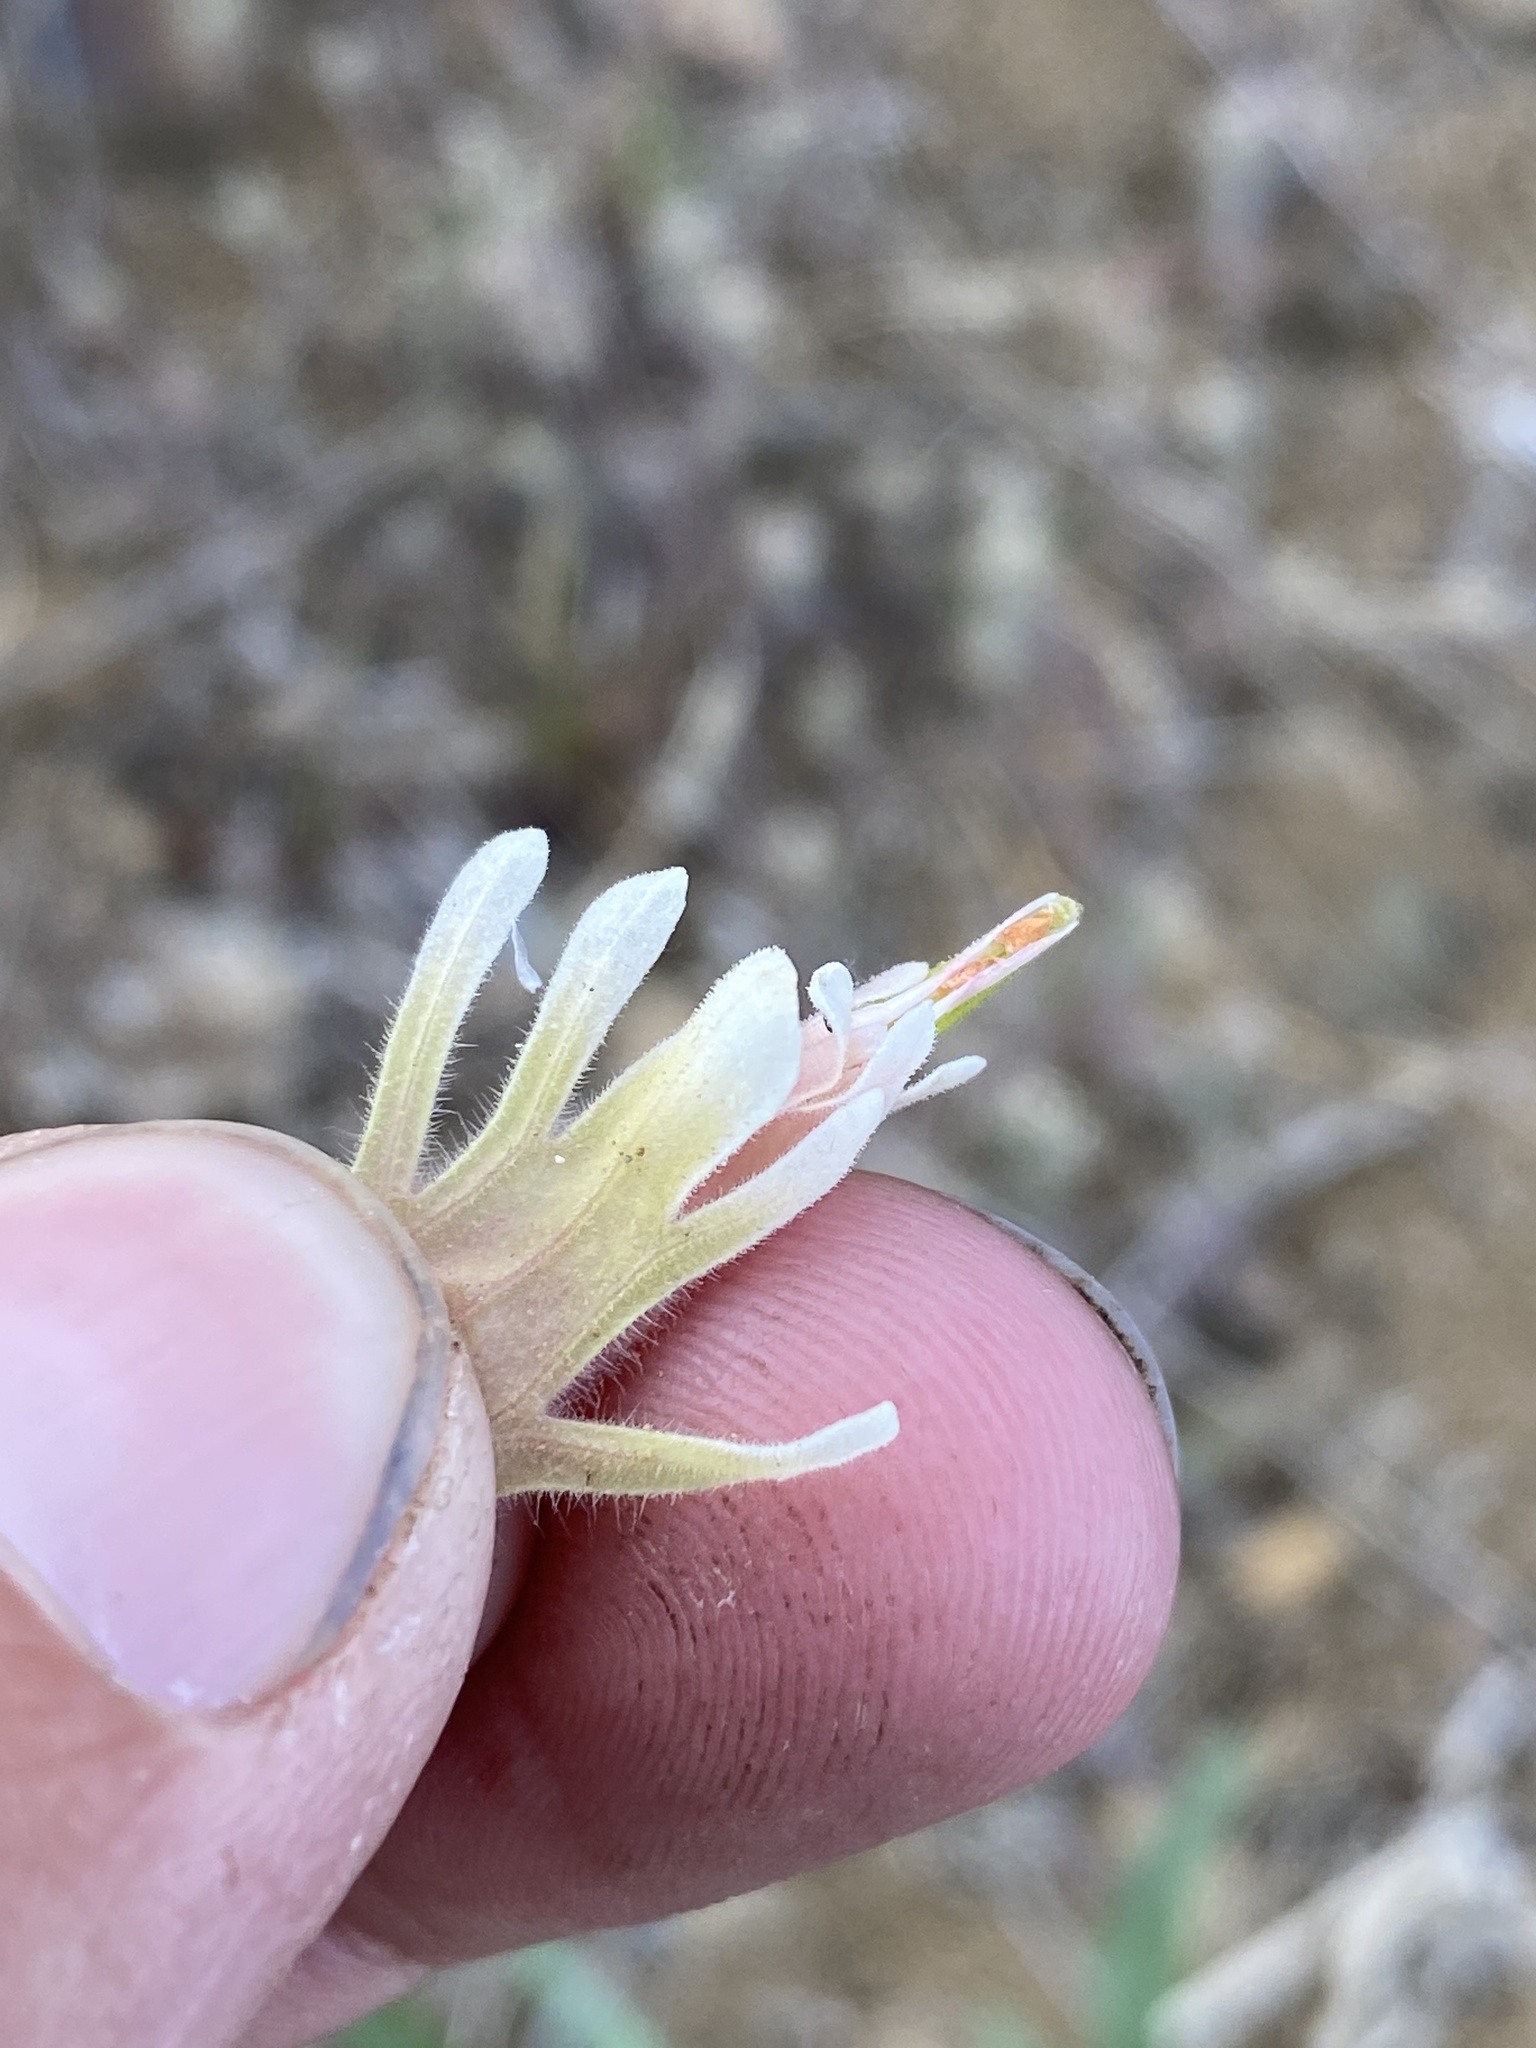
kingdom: Plantae
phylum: Tracheophyta
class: Magnoliopsida
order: Lamiales
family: Orobanchaceae
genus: Castilleja
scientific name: Castilleja xanthotricha
